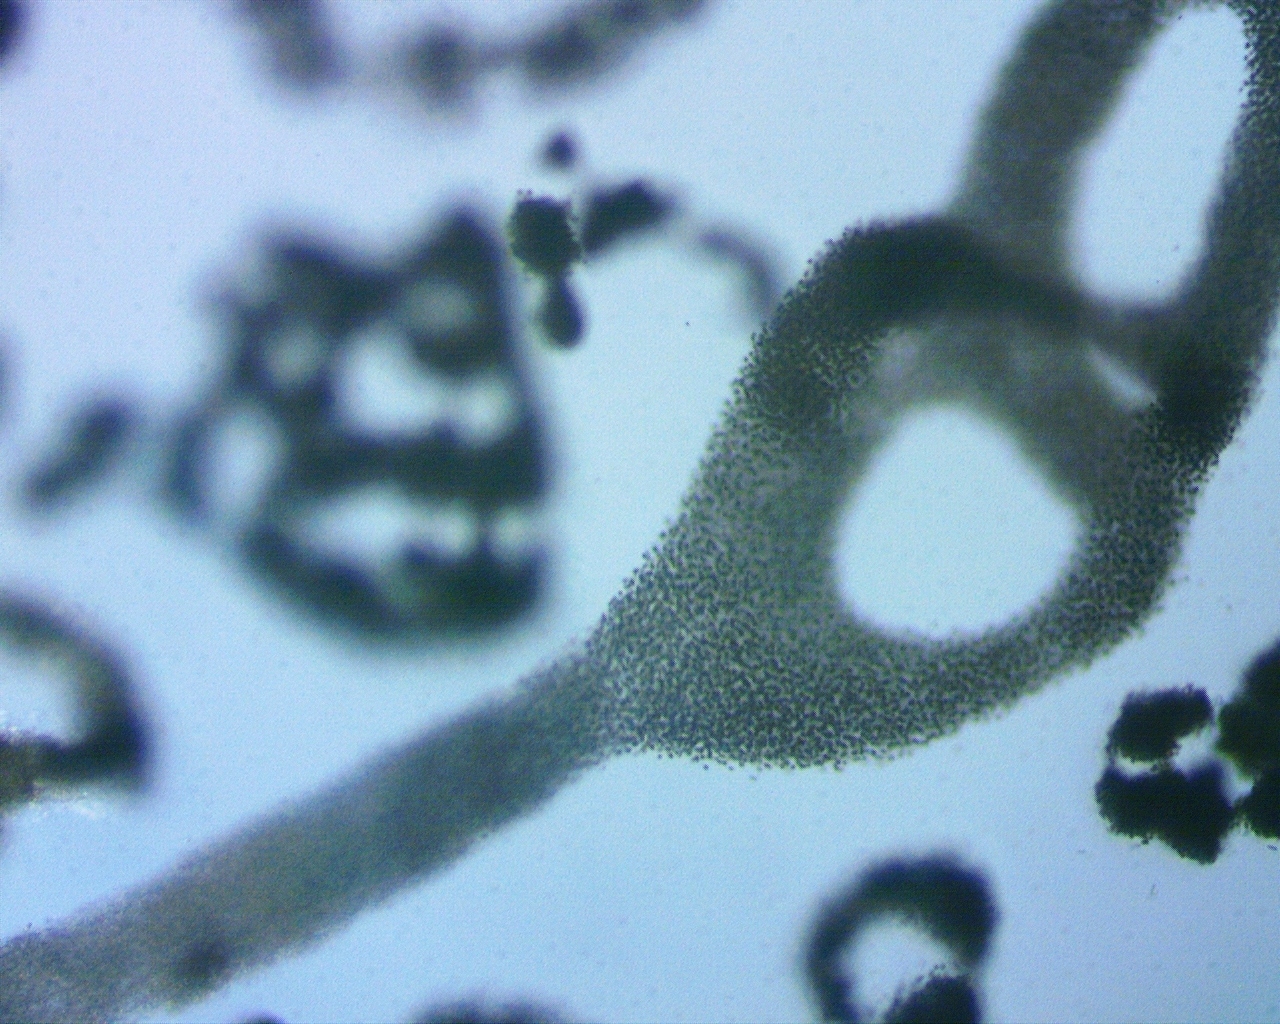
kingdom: Bacteria
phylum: Cyanobacteria
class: Cyanobacteriia
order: Cyanobacteriales
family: Microcystaceae
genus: Microcystis
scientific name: Microcystis aeruginosa
